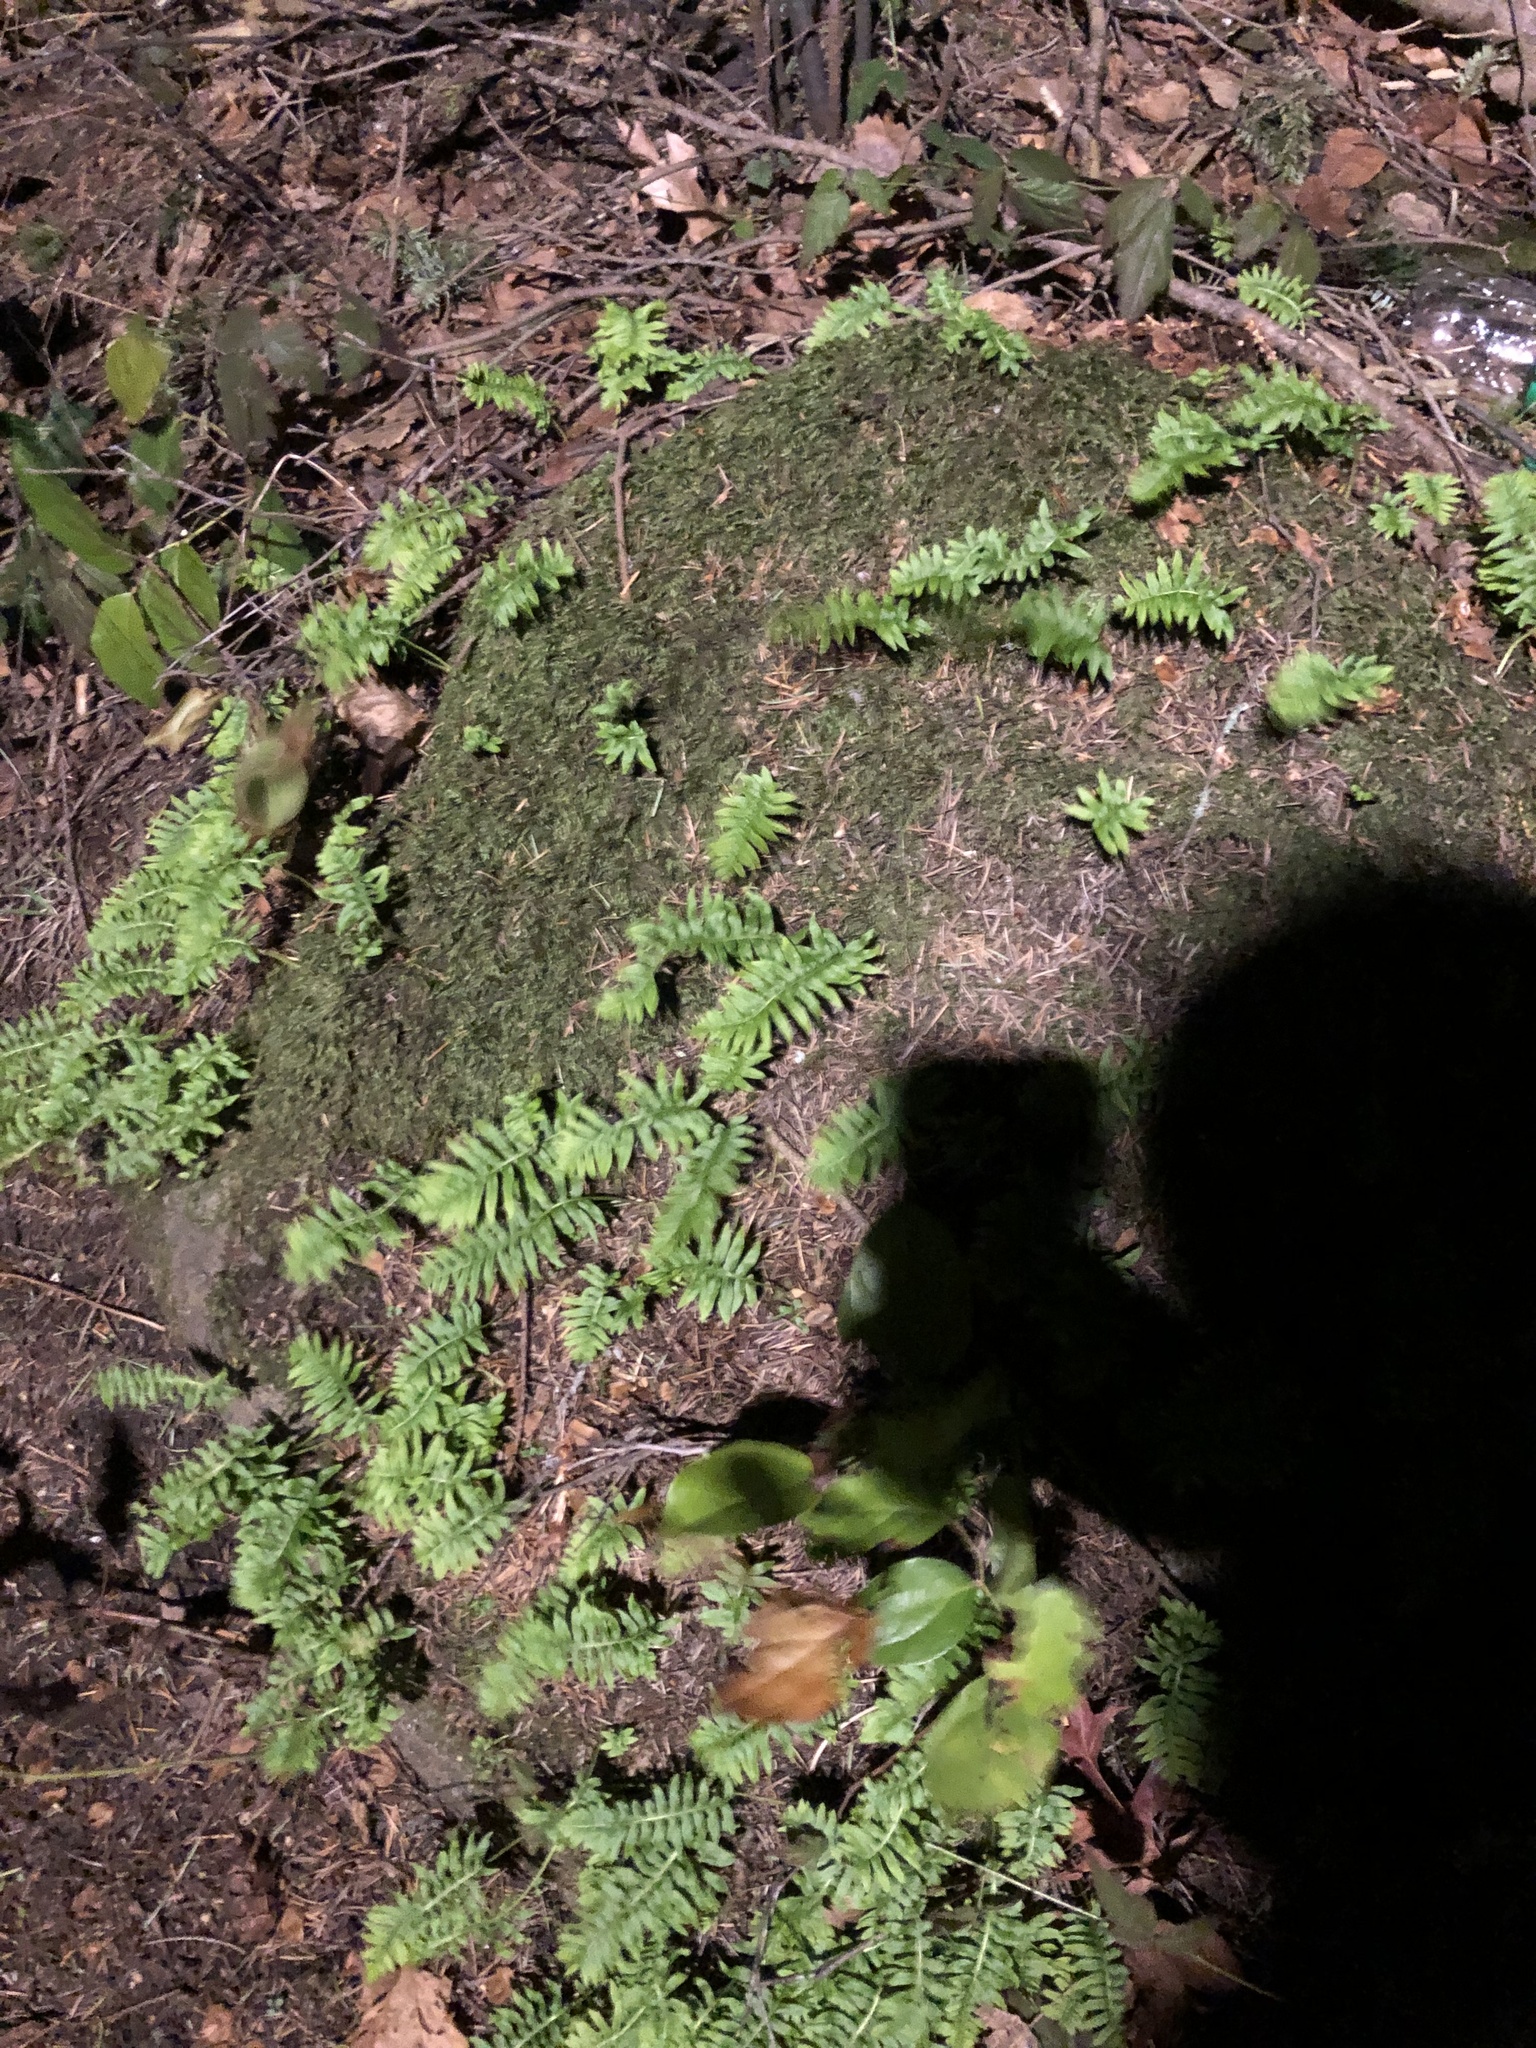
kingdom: Plantae
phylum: Tracheophyta
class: Polypodiopsida
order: Polypodiales
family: Polypodiaceae
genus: Polypodium
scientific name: Polypodium glycyrrhiza
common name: Licorice fern
